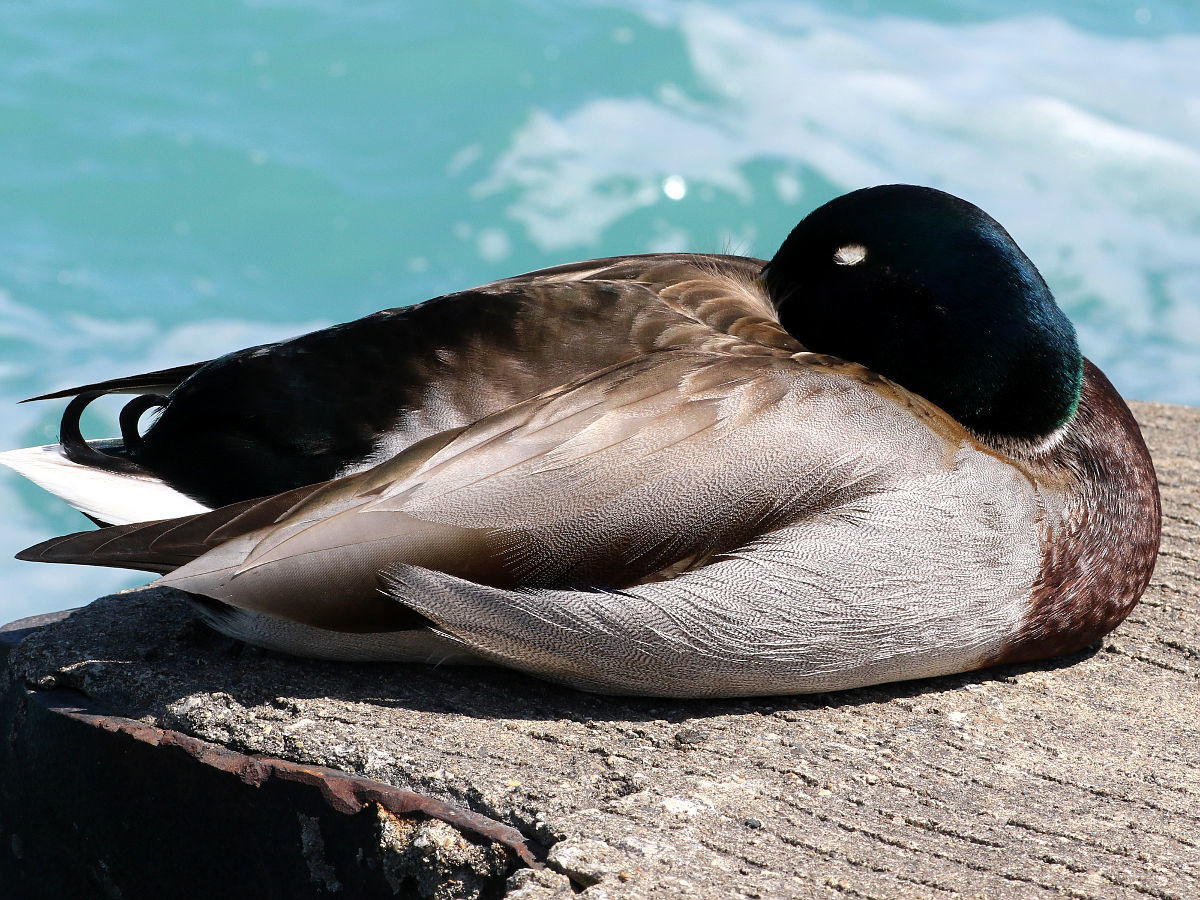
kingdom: Animalia
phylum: Chordata
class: Aves
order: Anseriformes
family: Anatidae
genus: Anas
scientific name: Anas platyrhynchos
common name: Mallard
